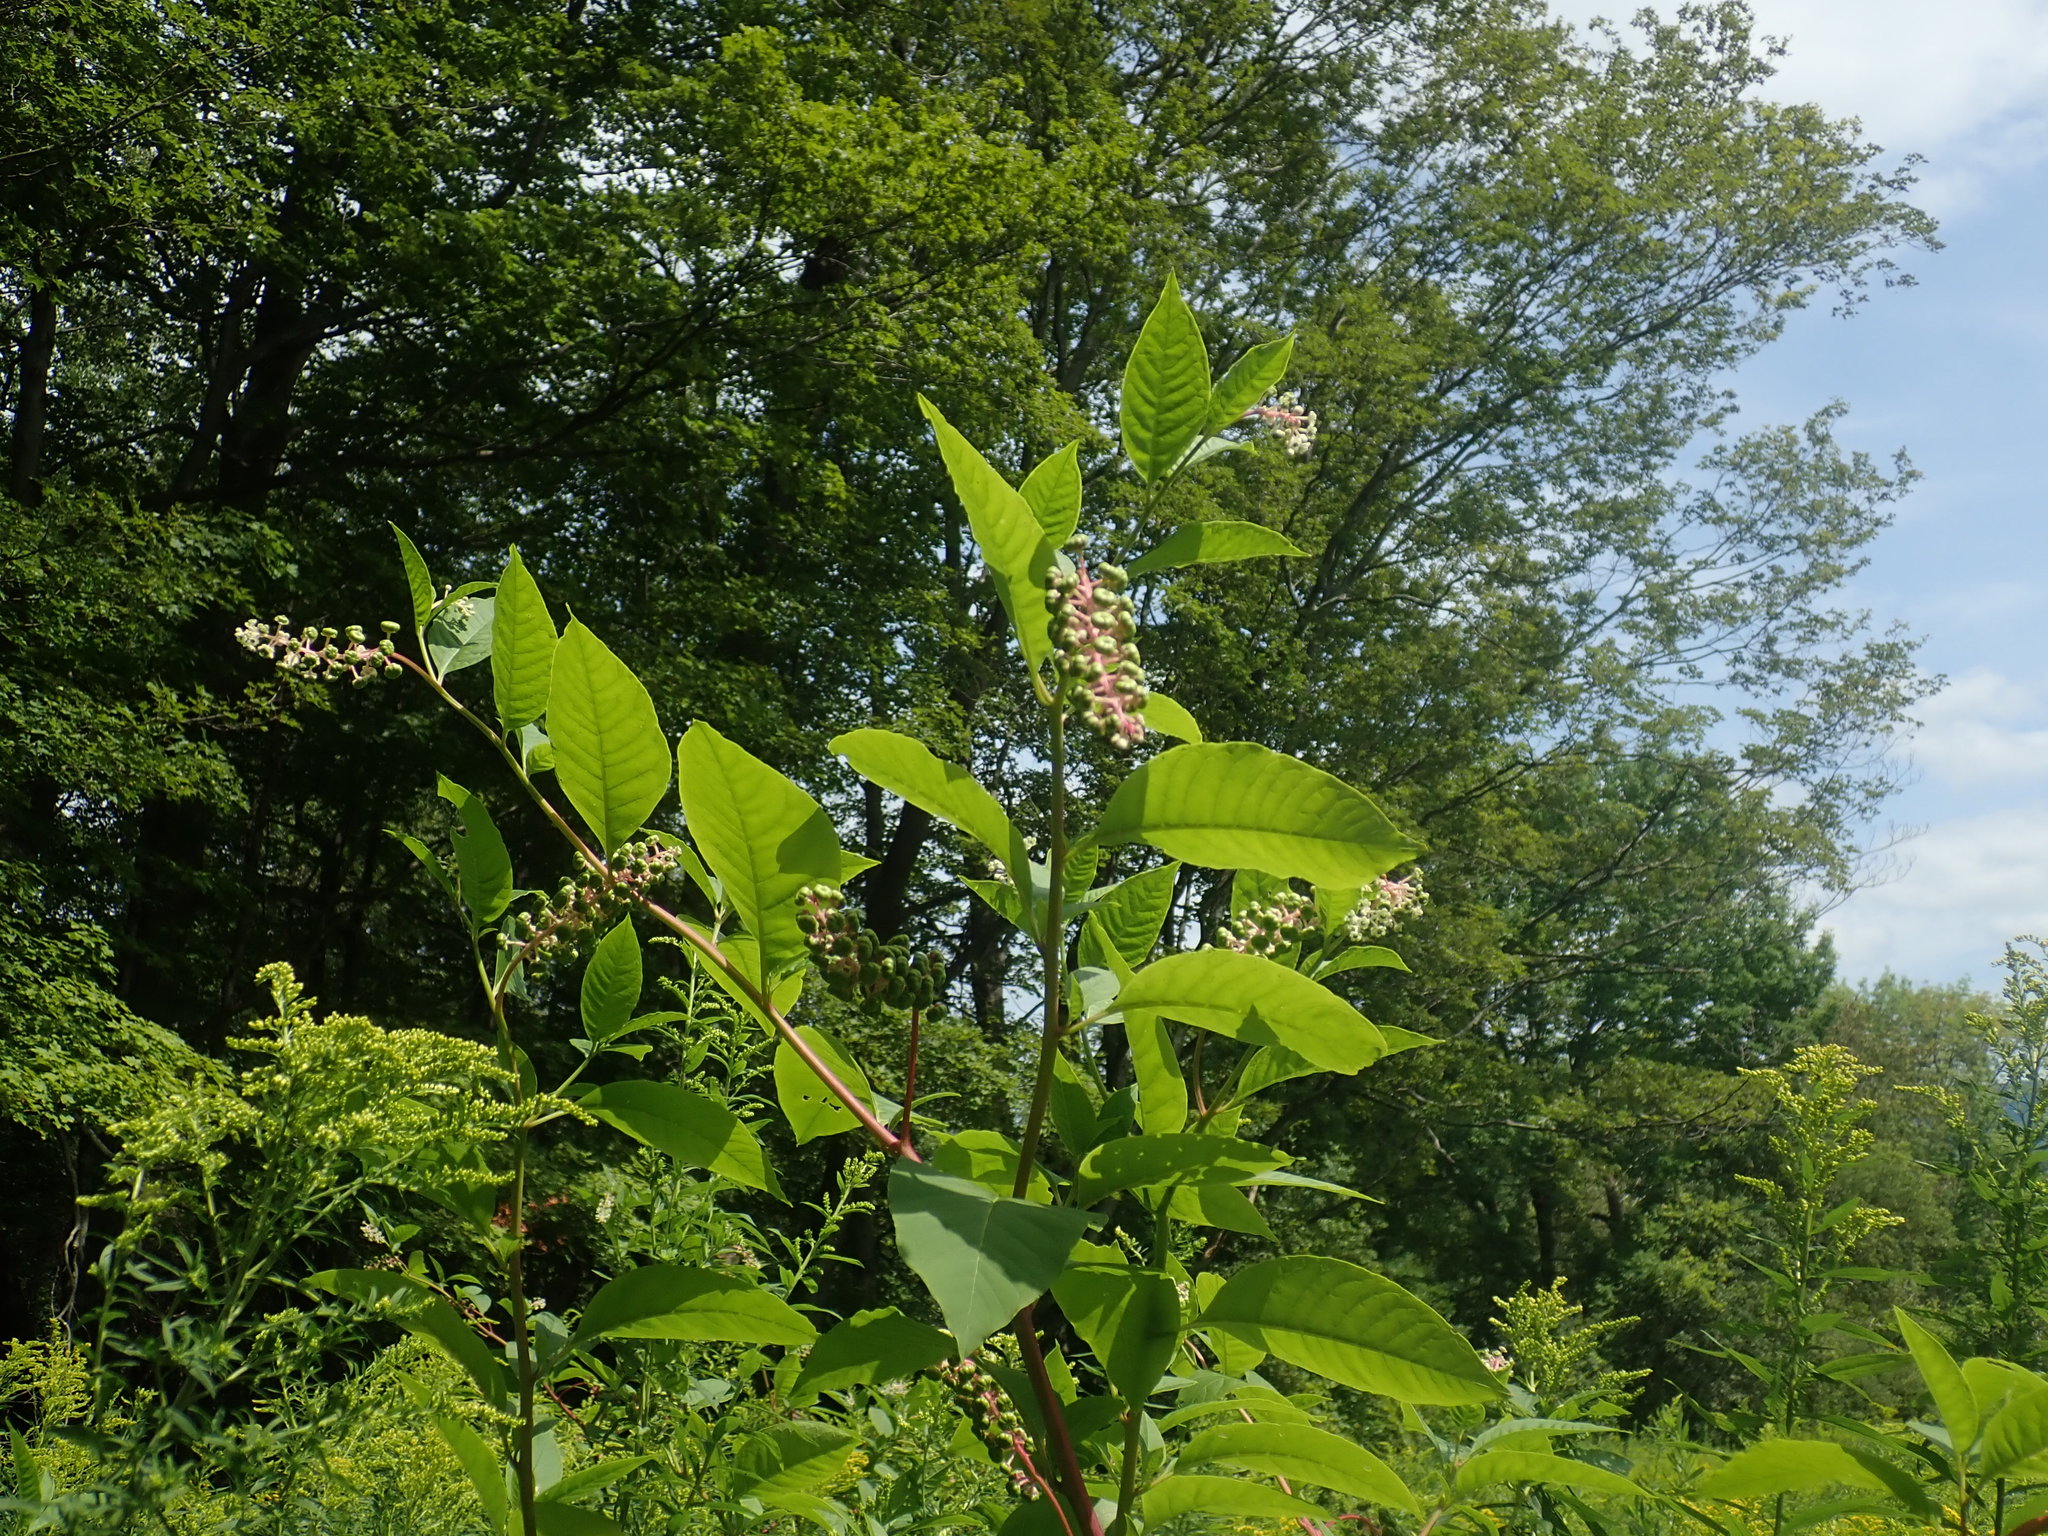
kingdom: Plantae
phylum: Tracheophyta
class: Magnoliopsida
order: Caryophyllales
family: Phytolaccaceae
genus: Phytolacca
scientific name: Phytolacca americana
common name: American pokeweed
